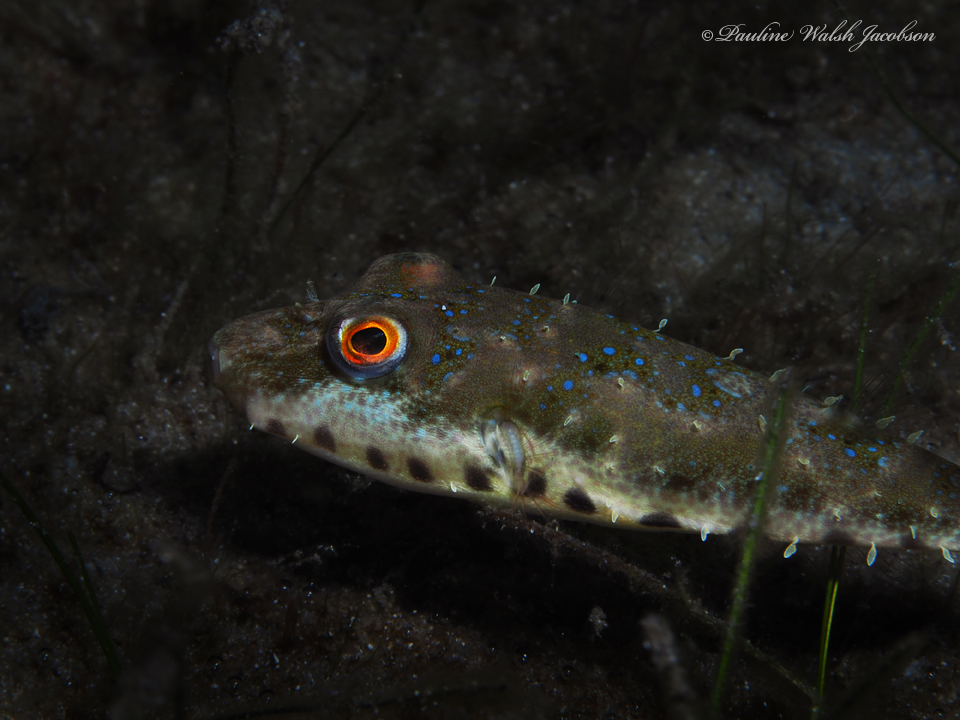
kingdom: Animalia
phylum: Chordata
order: Tetraodontiformes
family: Tetraodontidae
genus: Sphoeroides
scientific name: Sphoeroides spengleri
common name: Bandtail puffer
